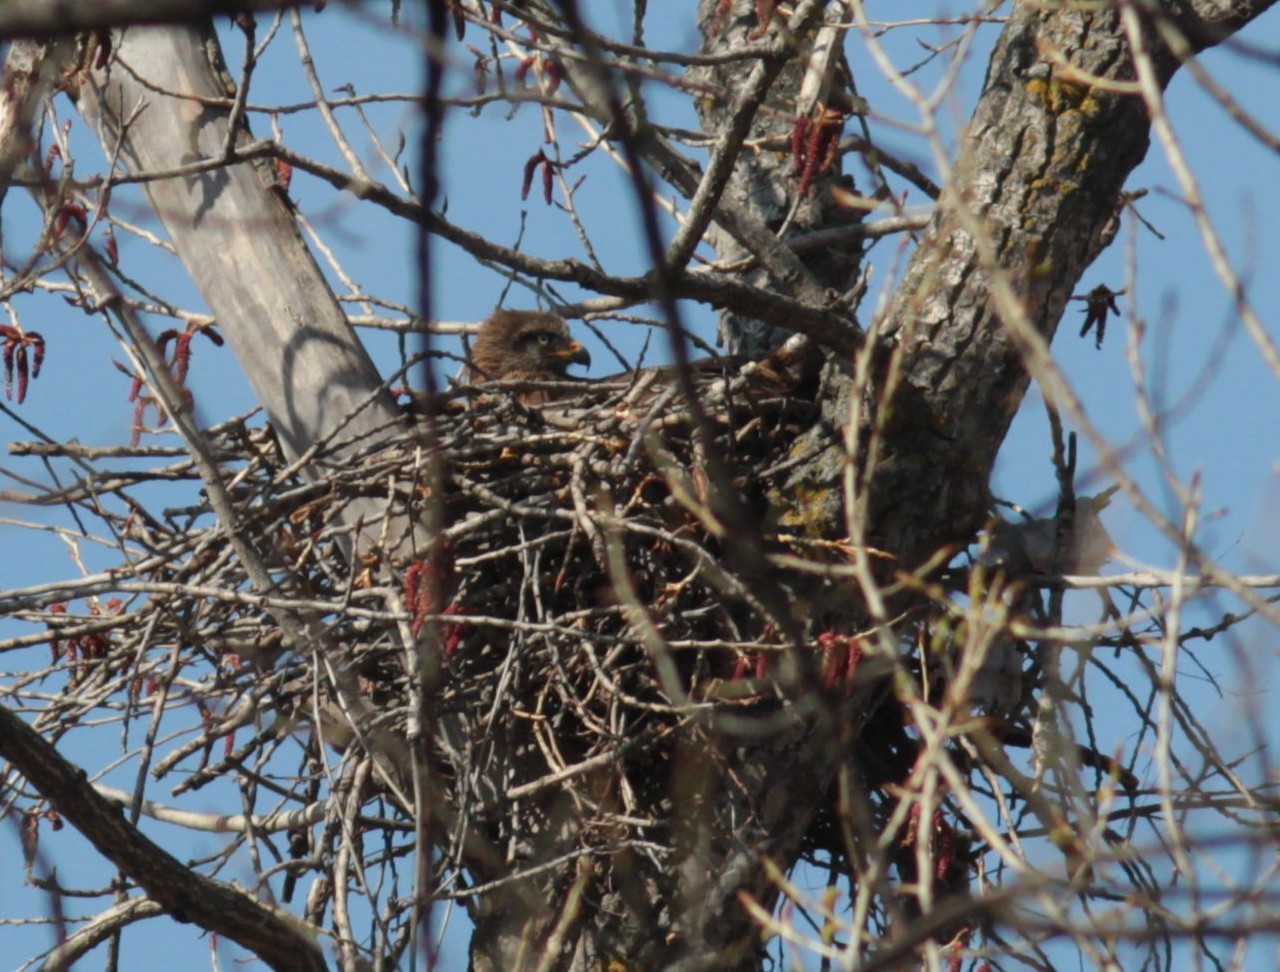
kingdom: Animalia
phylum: Chordata
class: Aves
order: Accipitriformes
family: Accipitridae
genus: Milvus
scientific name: Milvus migrans
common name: Black kite
